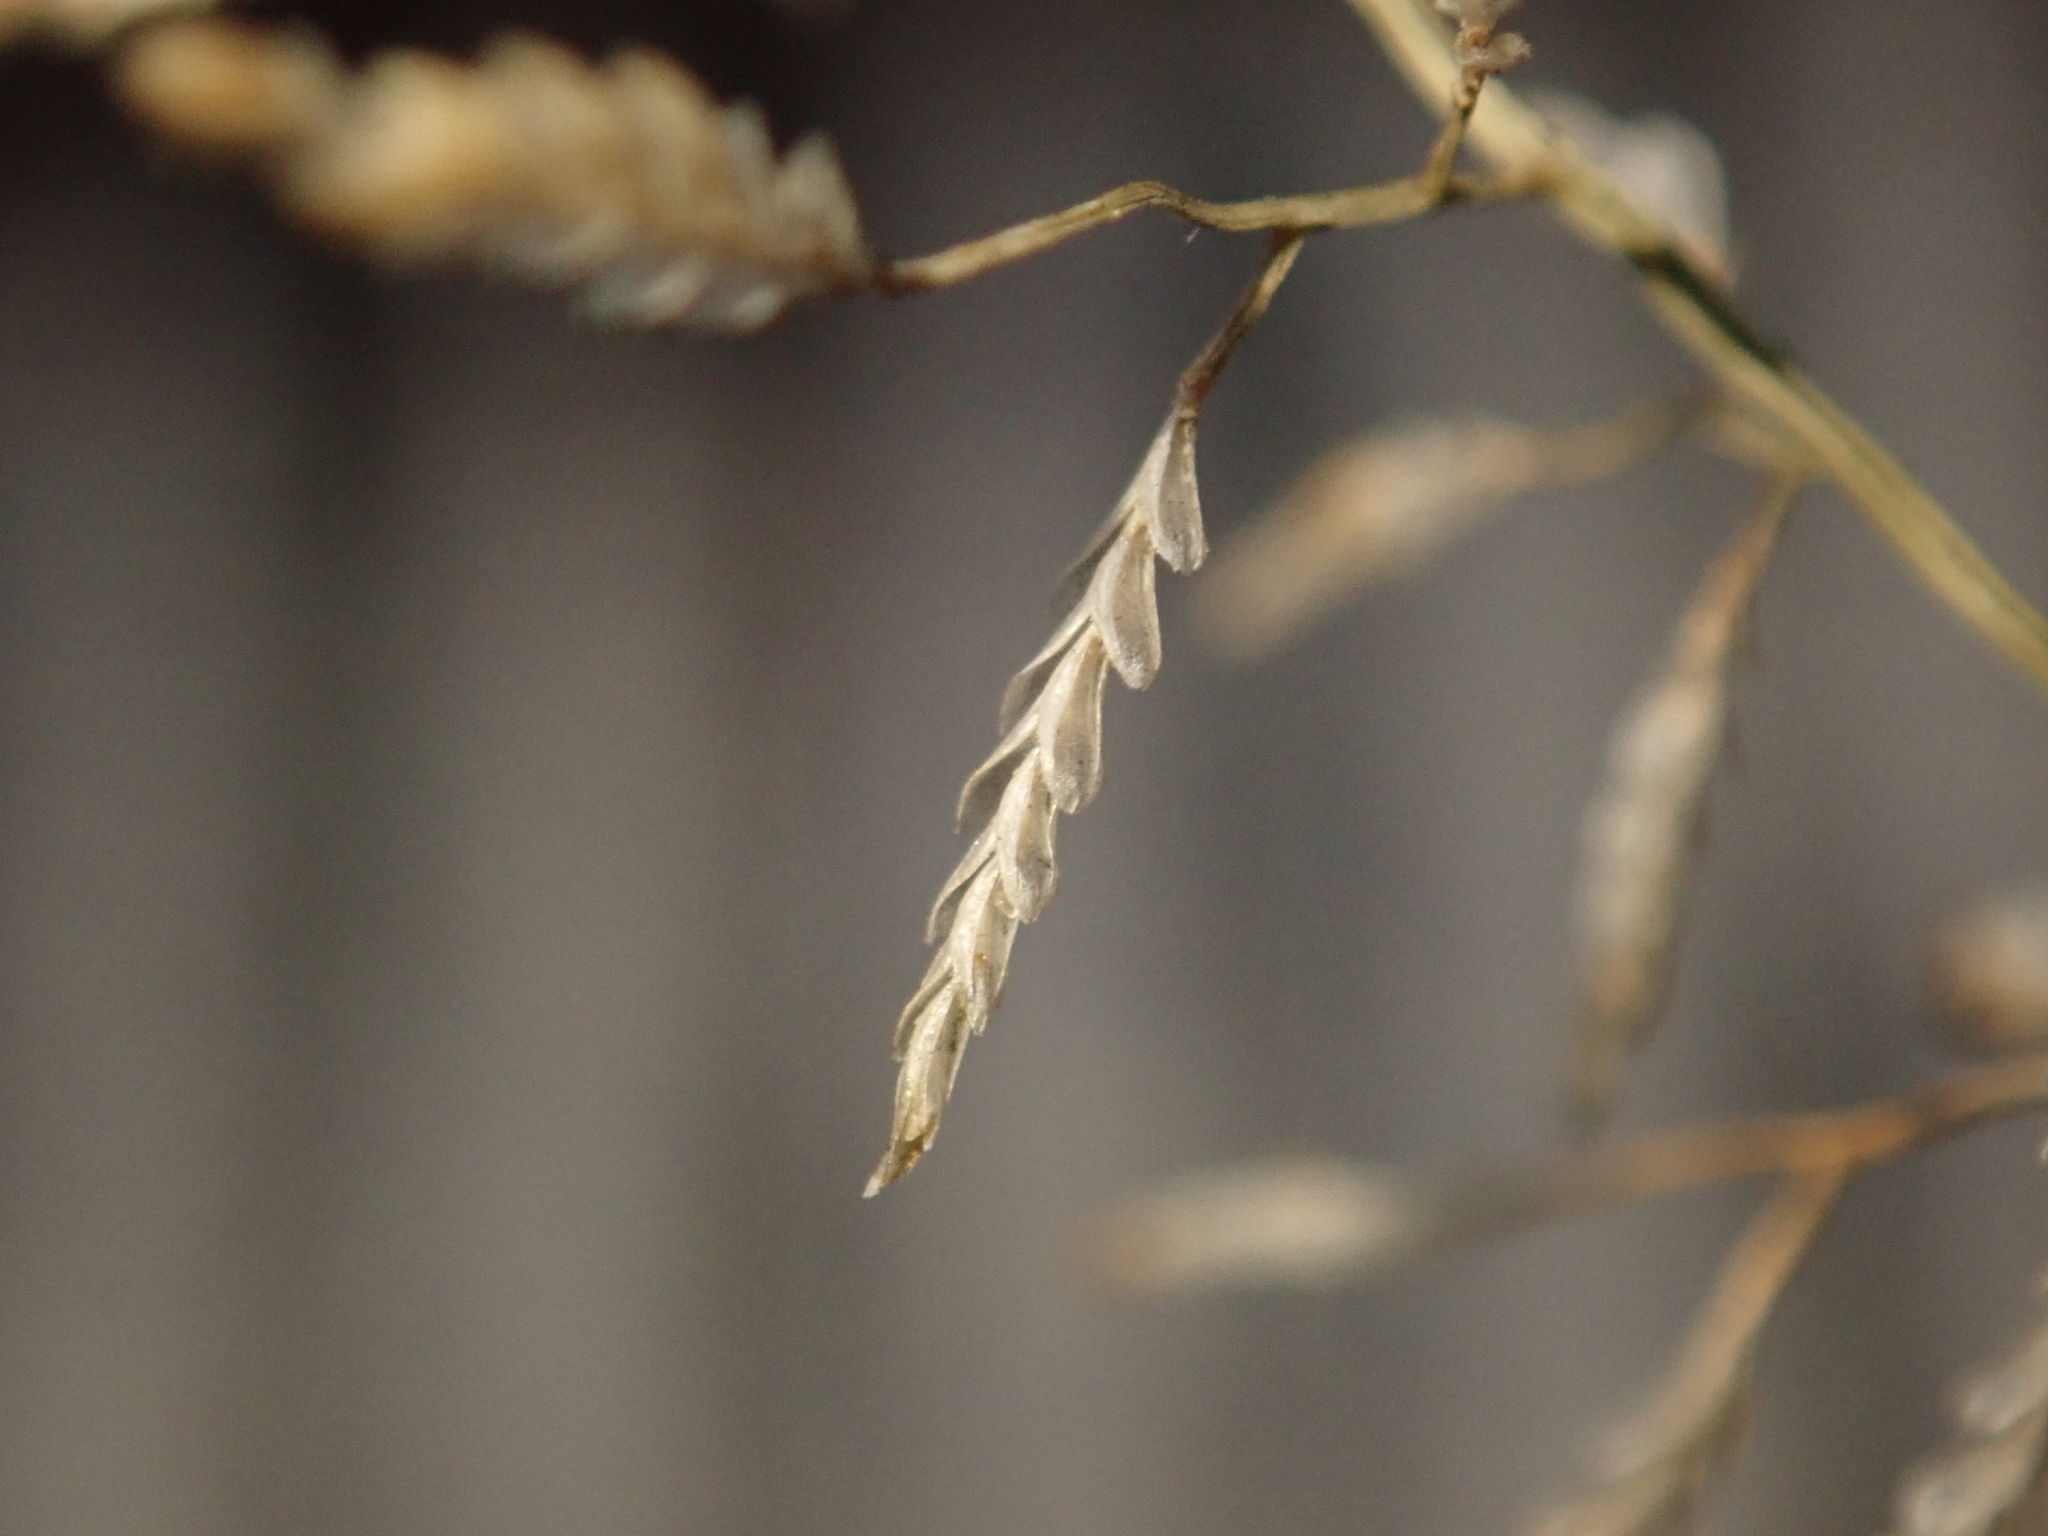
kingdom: Plantae
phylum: Tracheophyta
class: Liliopsida
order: Poales
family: Poaceae
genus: Eragrostis
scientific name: Eragrostis minor
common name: Small love-grass
